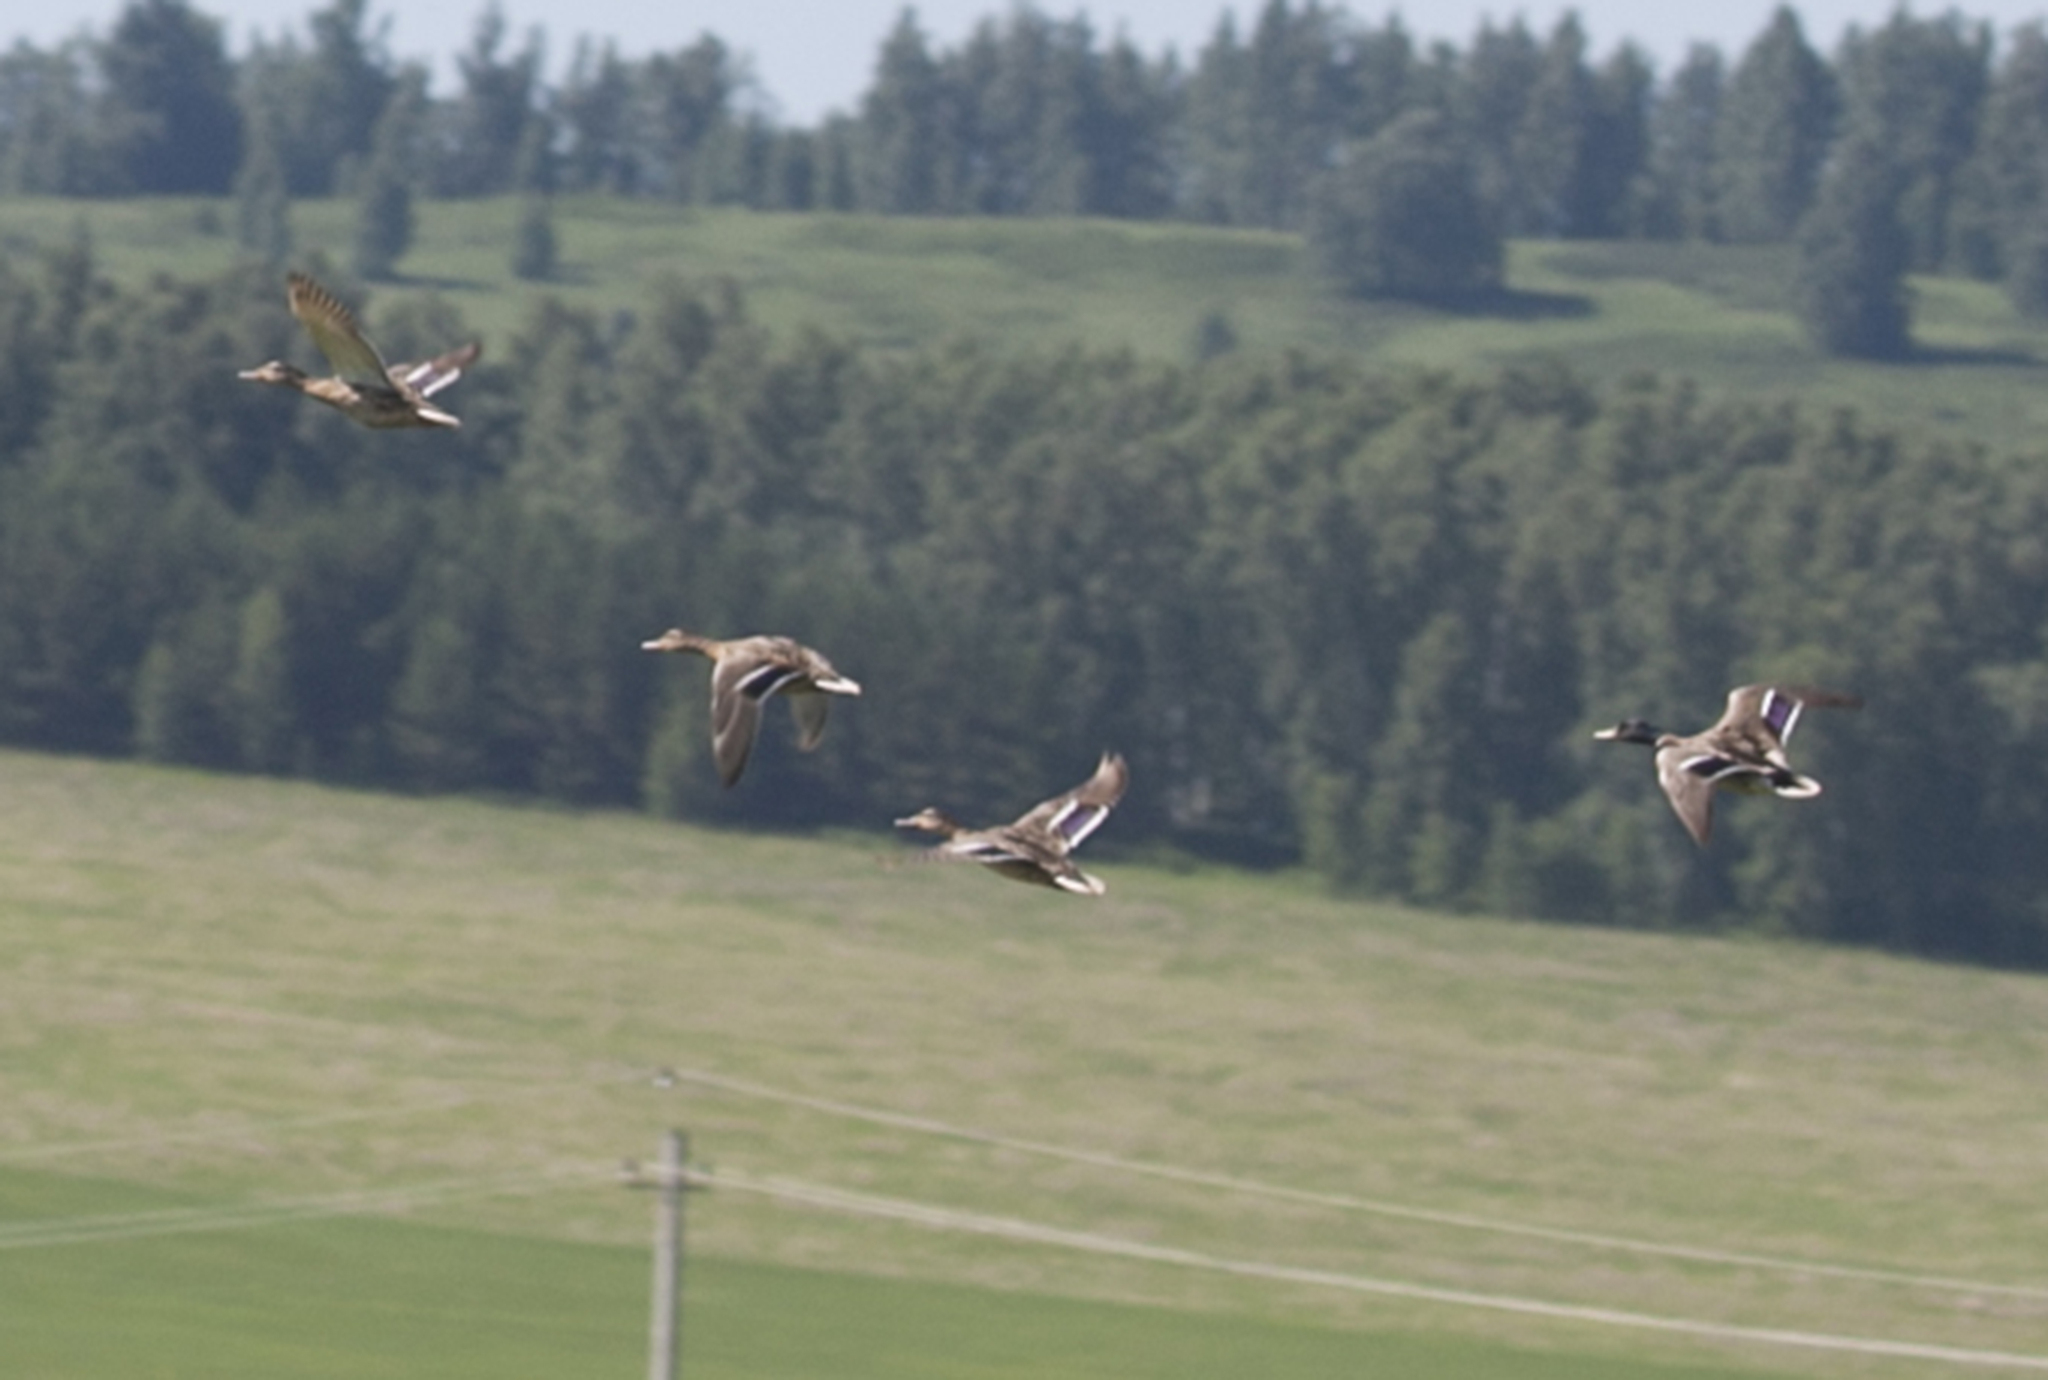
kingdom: Animalia
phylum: Chordata
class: Aves
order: Anseriformes
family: Anatidae
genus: Anas
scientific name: Anas platyrhynchos
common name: Mallard
